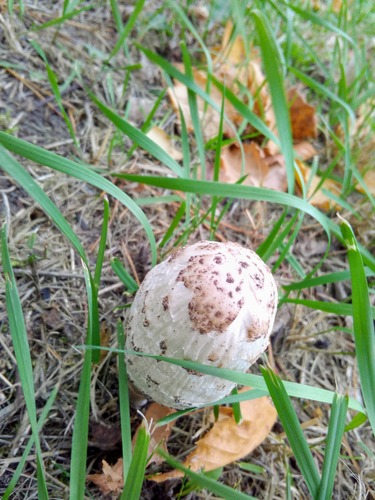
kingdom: Fungi
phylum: Basidiomycota
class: Agaricomycetes
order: Agaricales
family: Agaricaceae
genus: Coprinus
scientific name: Coprinus comatus
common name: Lawyer's wig
